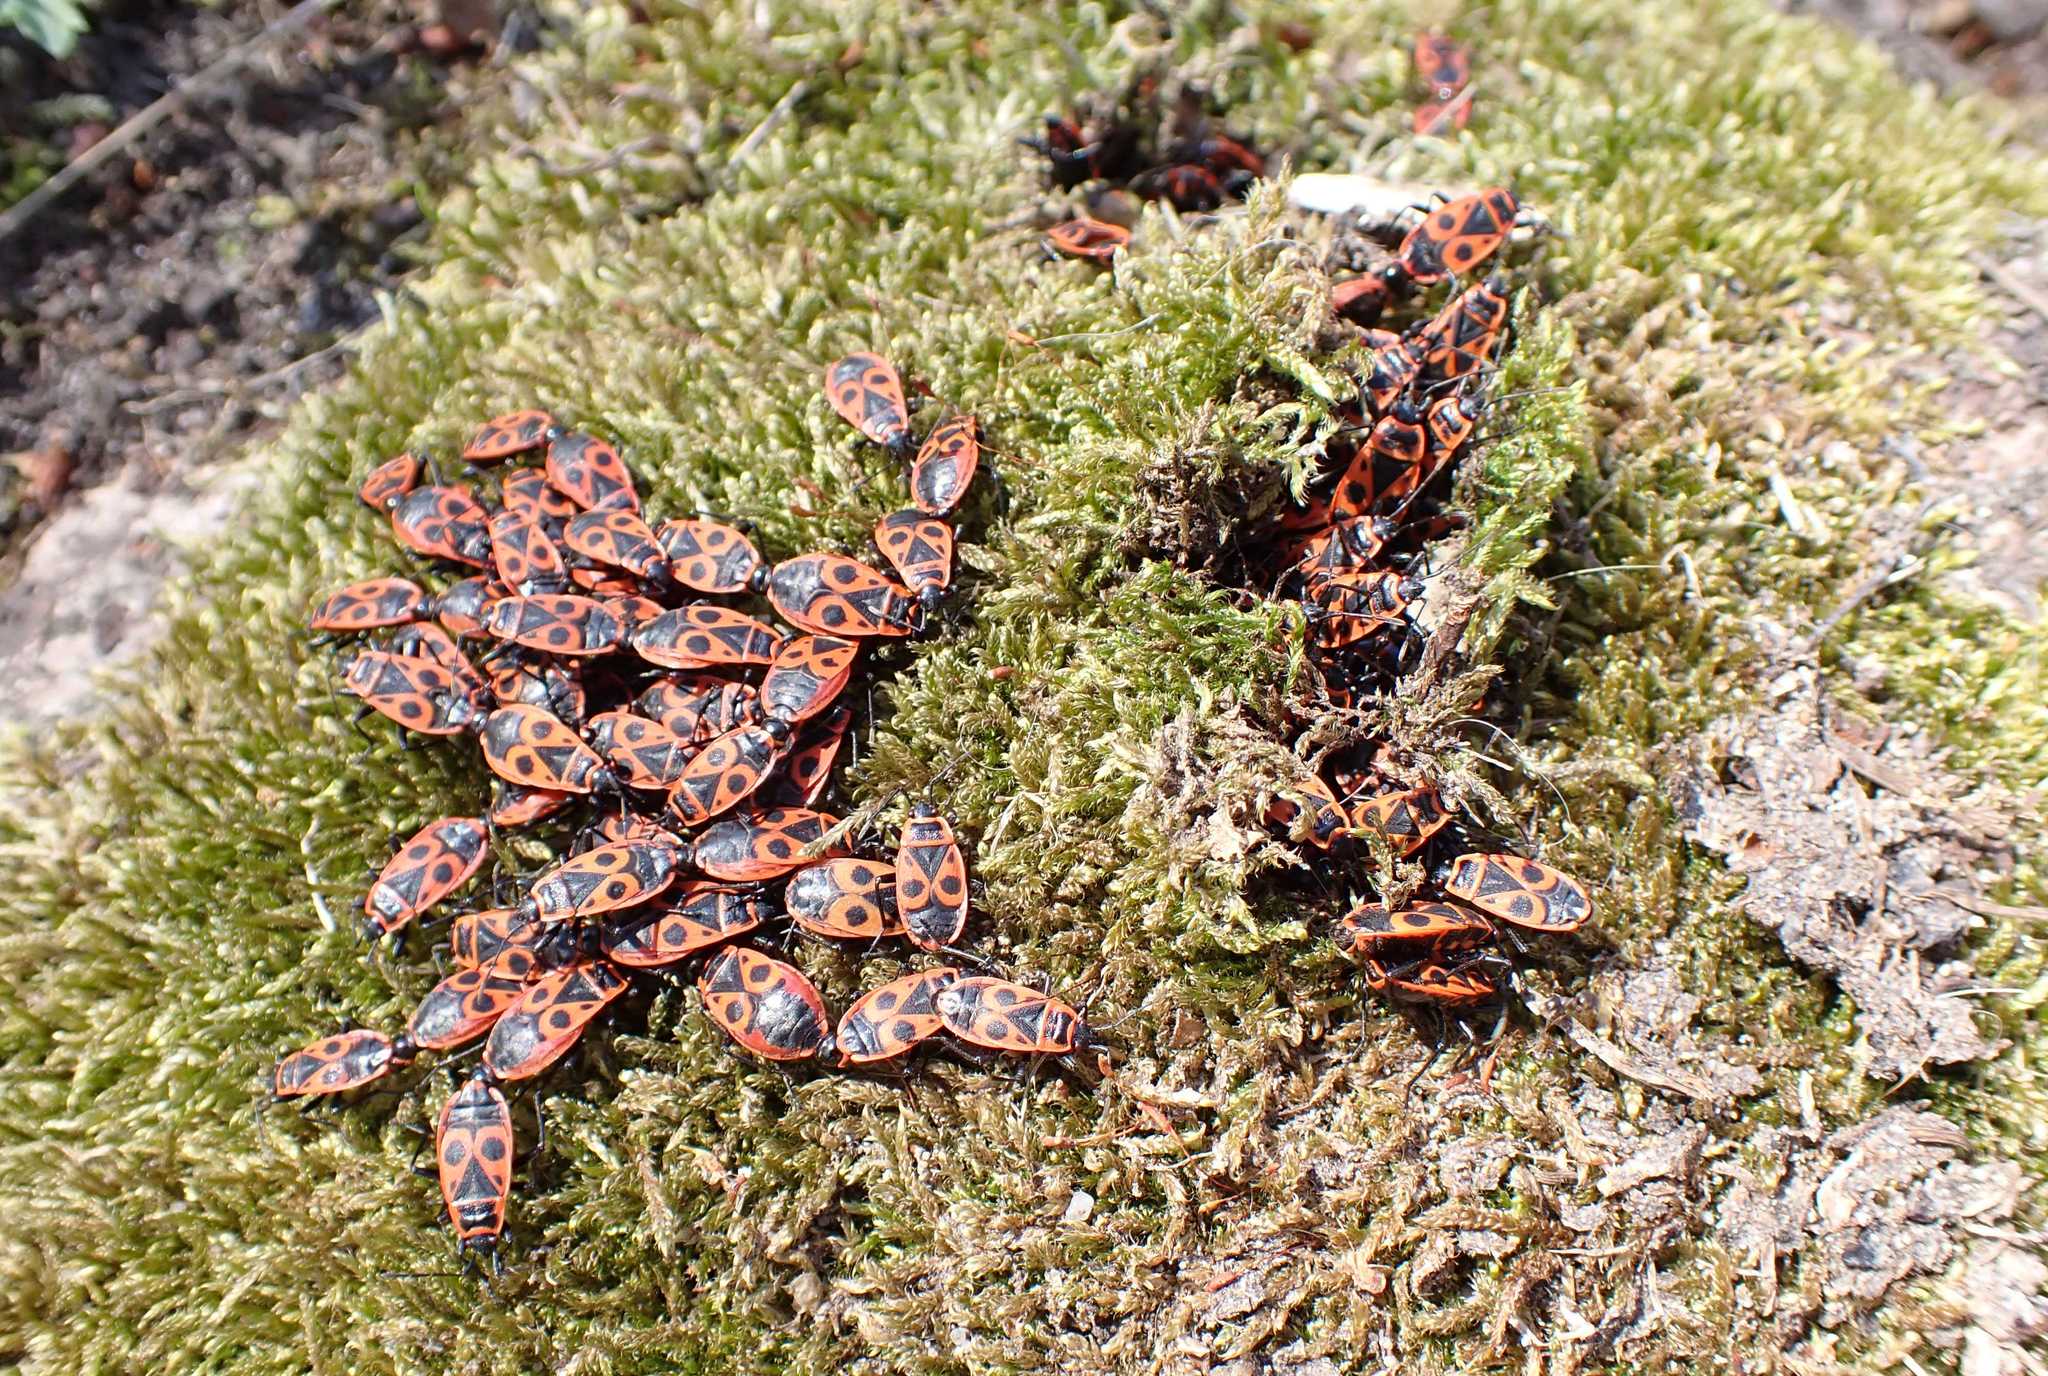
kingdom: Animalia
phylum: Arthropoda
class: Insecta
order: Hemiptera
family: Pyrrhocoridae
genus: Pyrrhocoris
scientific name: Pyrrhocoris apterus
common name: Firebug
